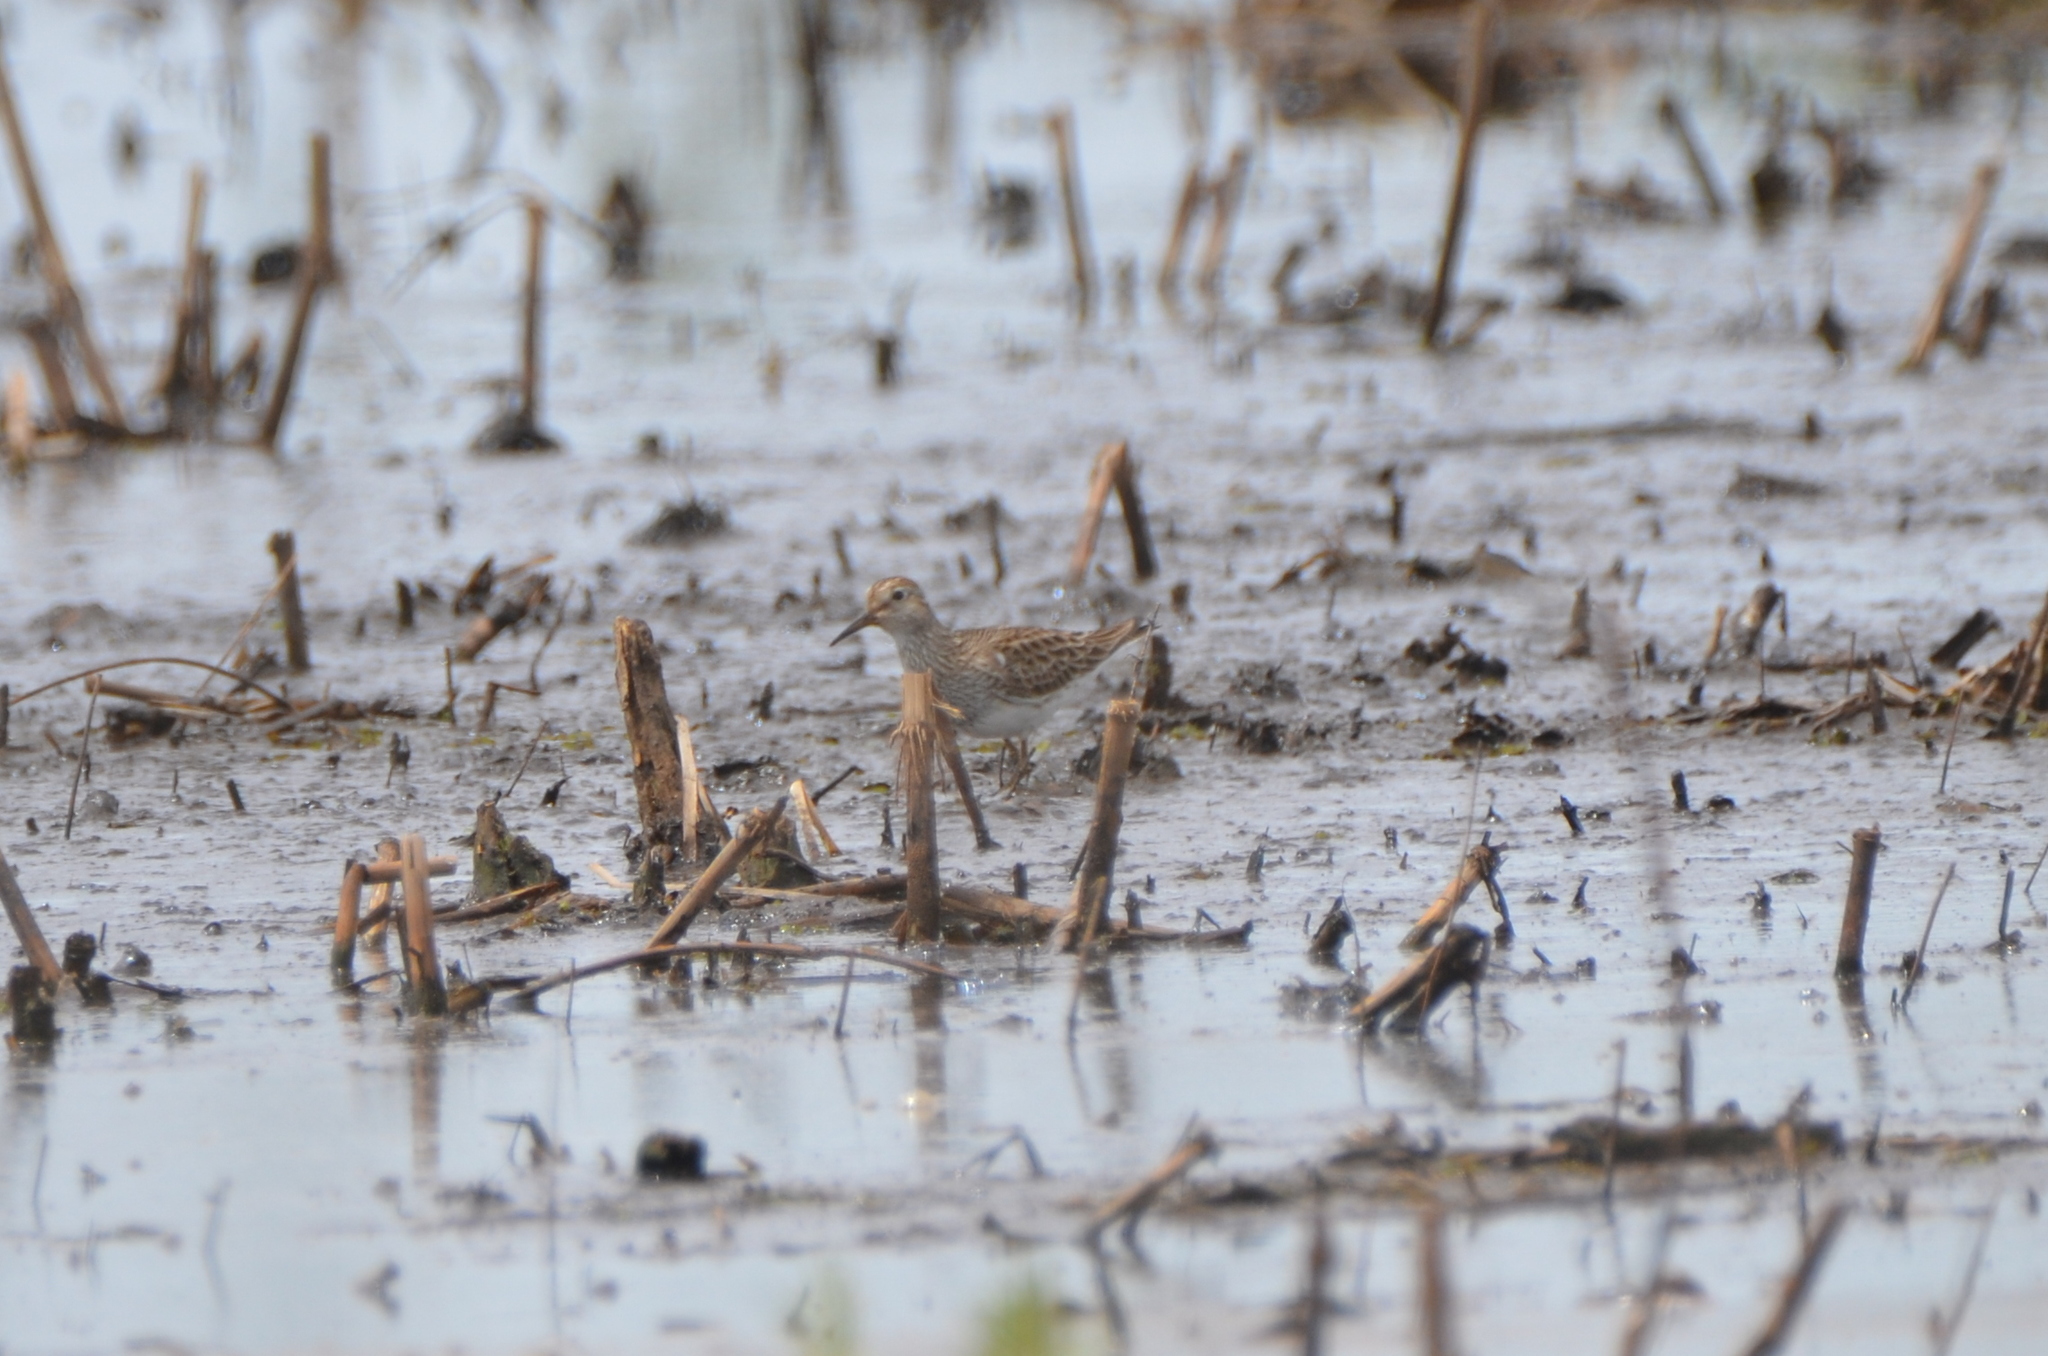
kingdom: Animalia
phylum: Chordata
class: Aves
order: Charadriiformes
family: Scolopacidae
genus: Calidris
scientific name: Calidris melanotos
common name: Pectoral sandpiper
